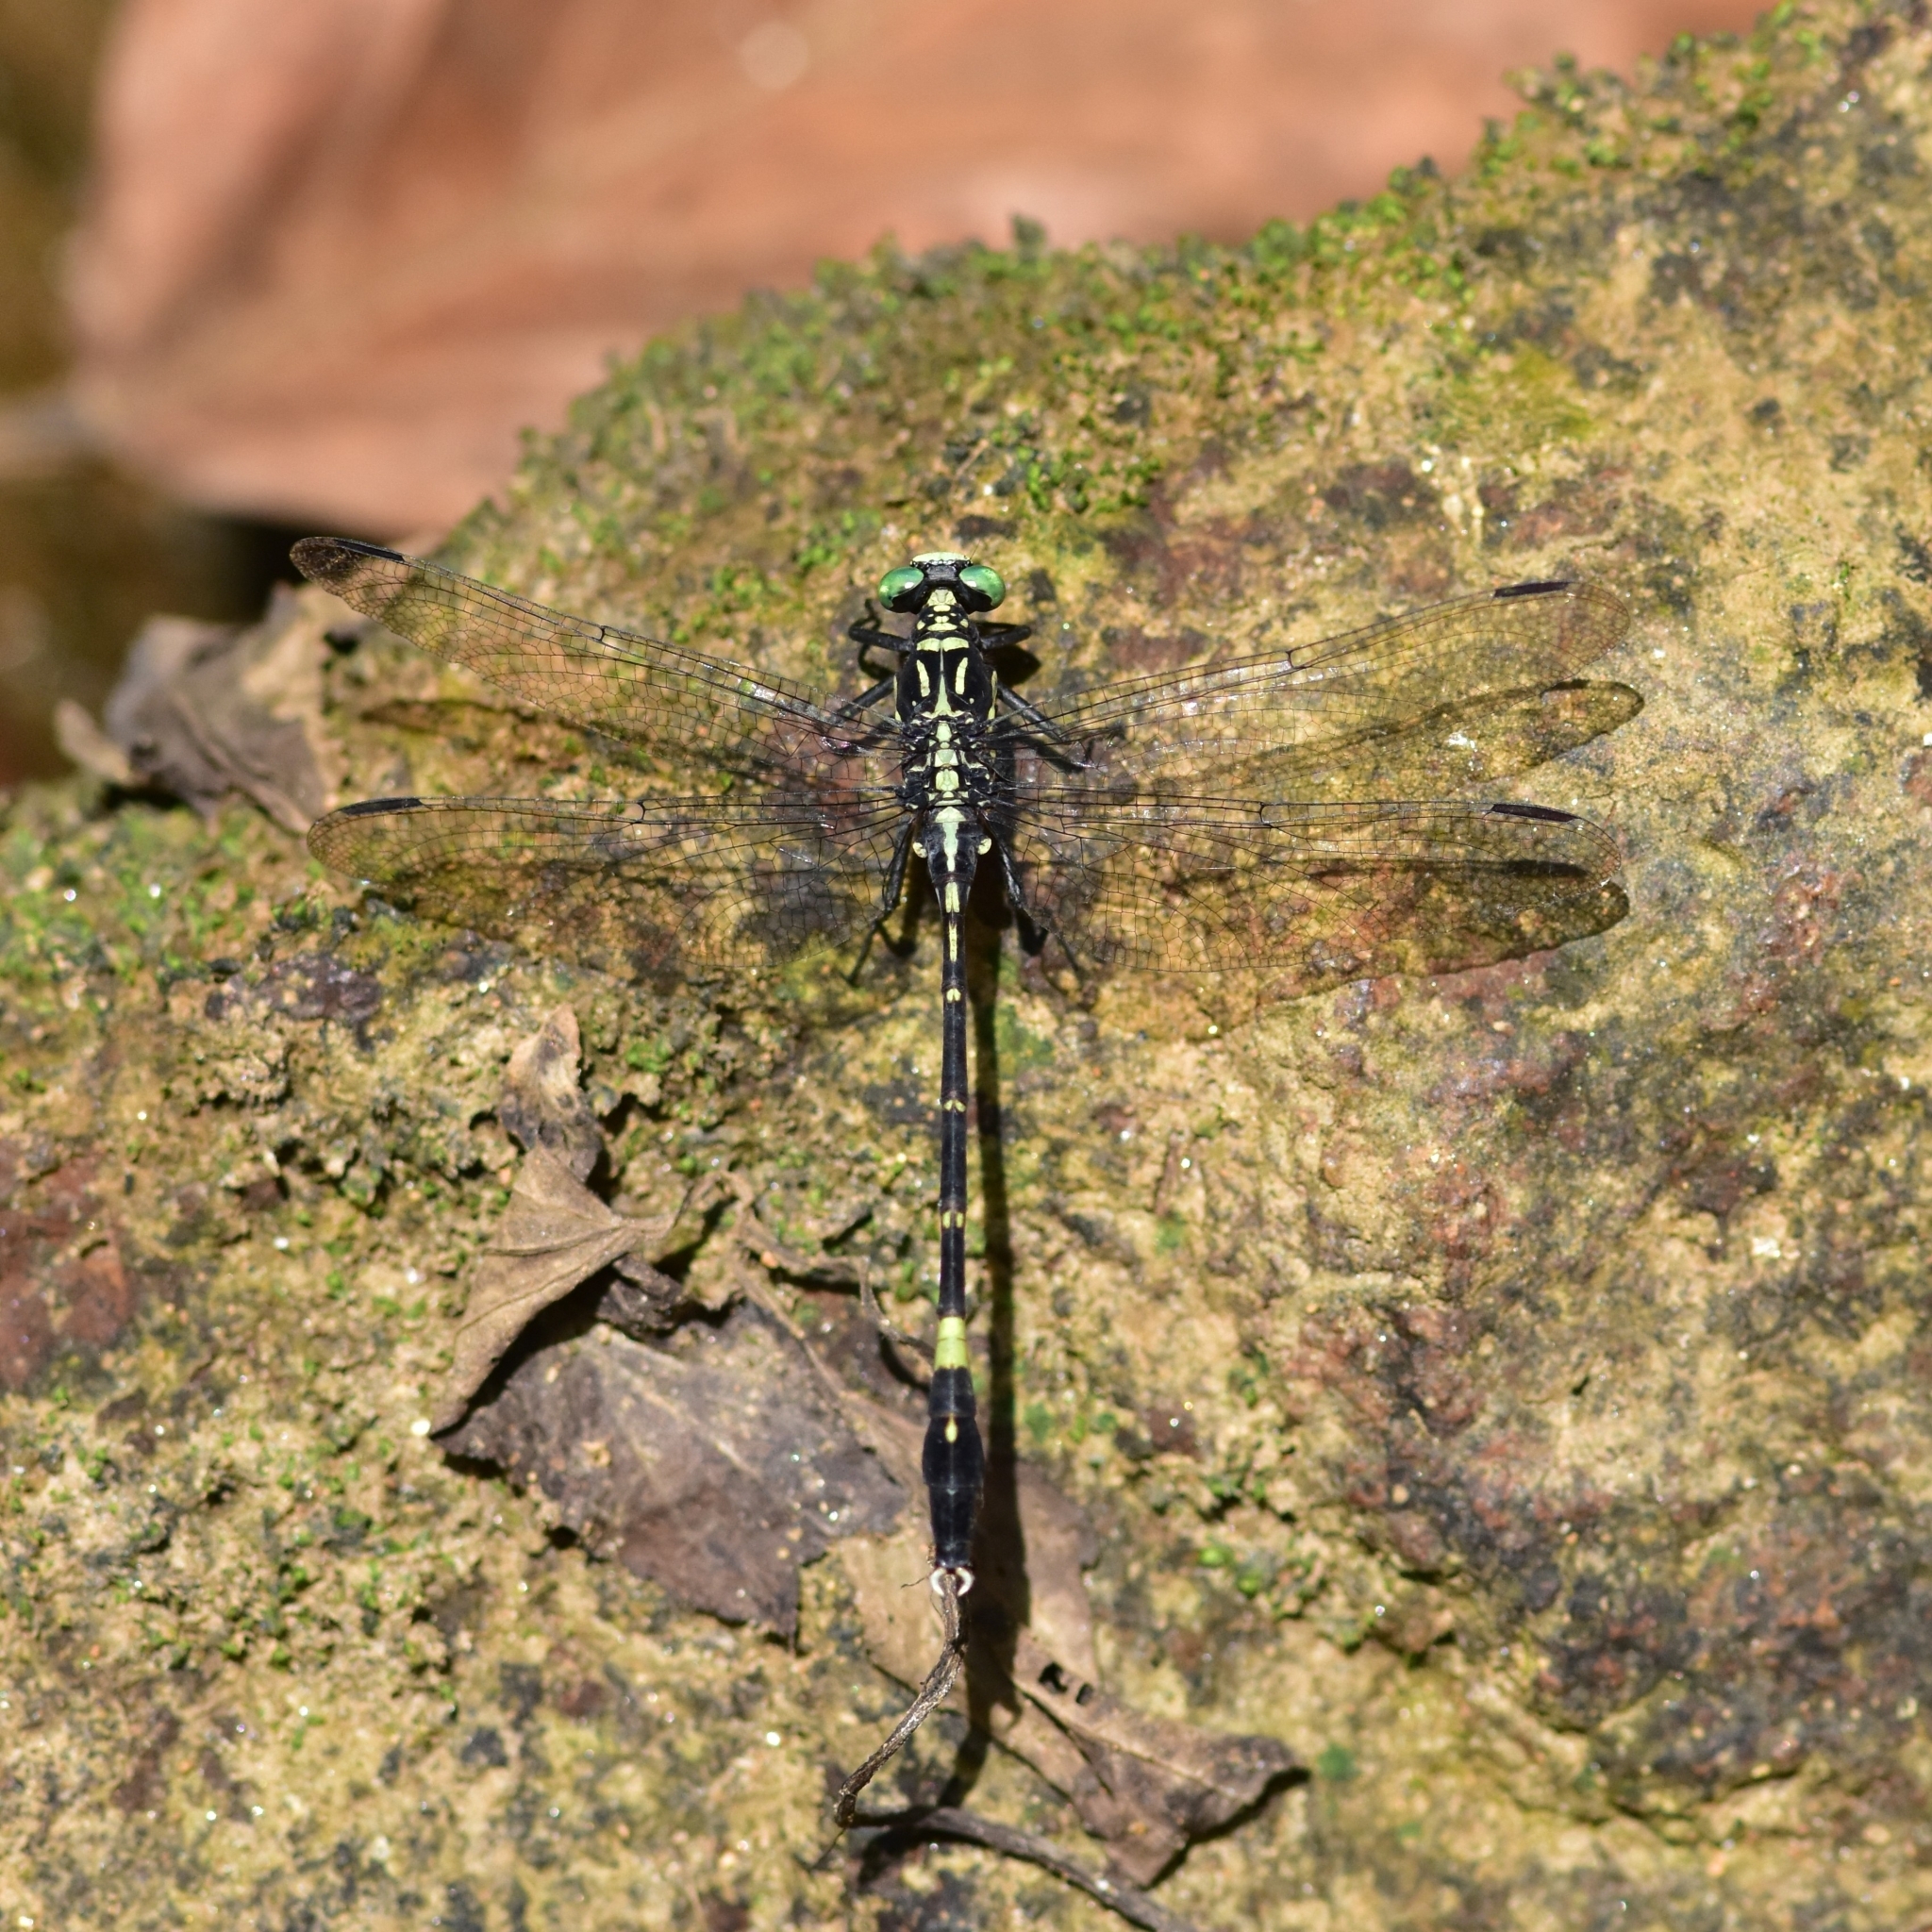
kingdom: Animalia
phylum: Arthropoda
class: Insecta
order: Odonata
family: Gomphidae
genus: Merogomphus
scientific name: Merogomphus tamaracherriensis
